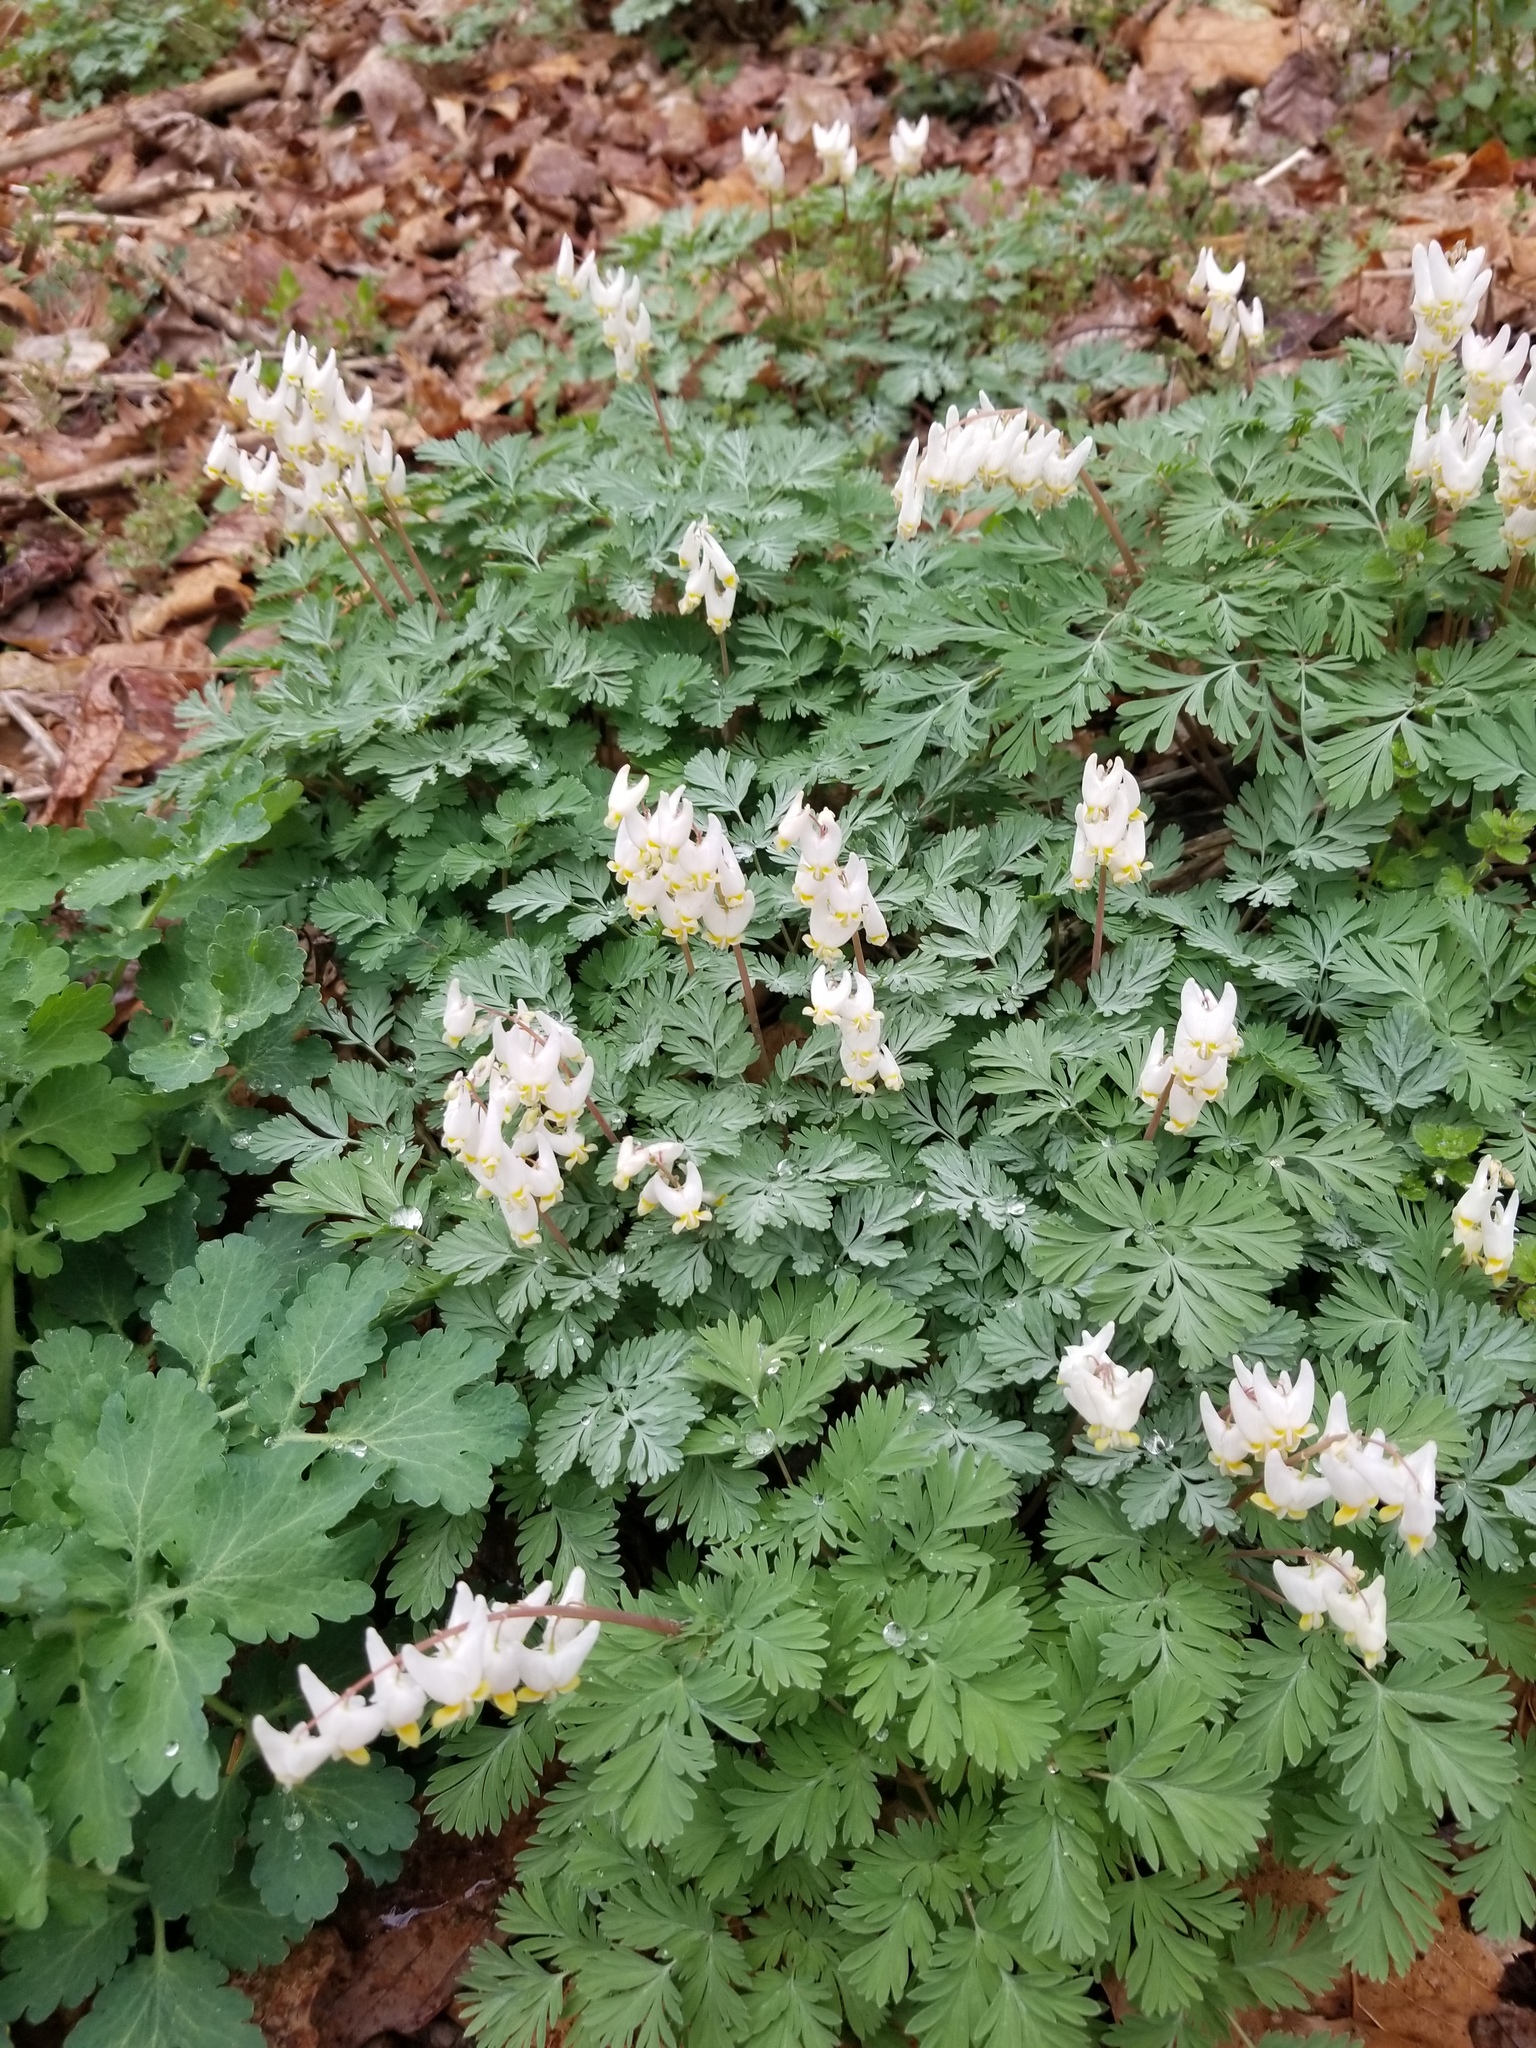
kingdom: Plantae
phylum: Tracheophyta
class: Magnoliopsida
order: Ranunculales
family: Papaveraceae
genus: Dicentra
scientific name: Dicentra cucullaria
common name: Dutchman's breeches
